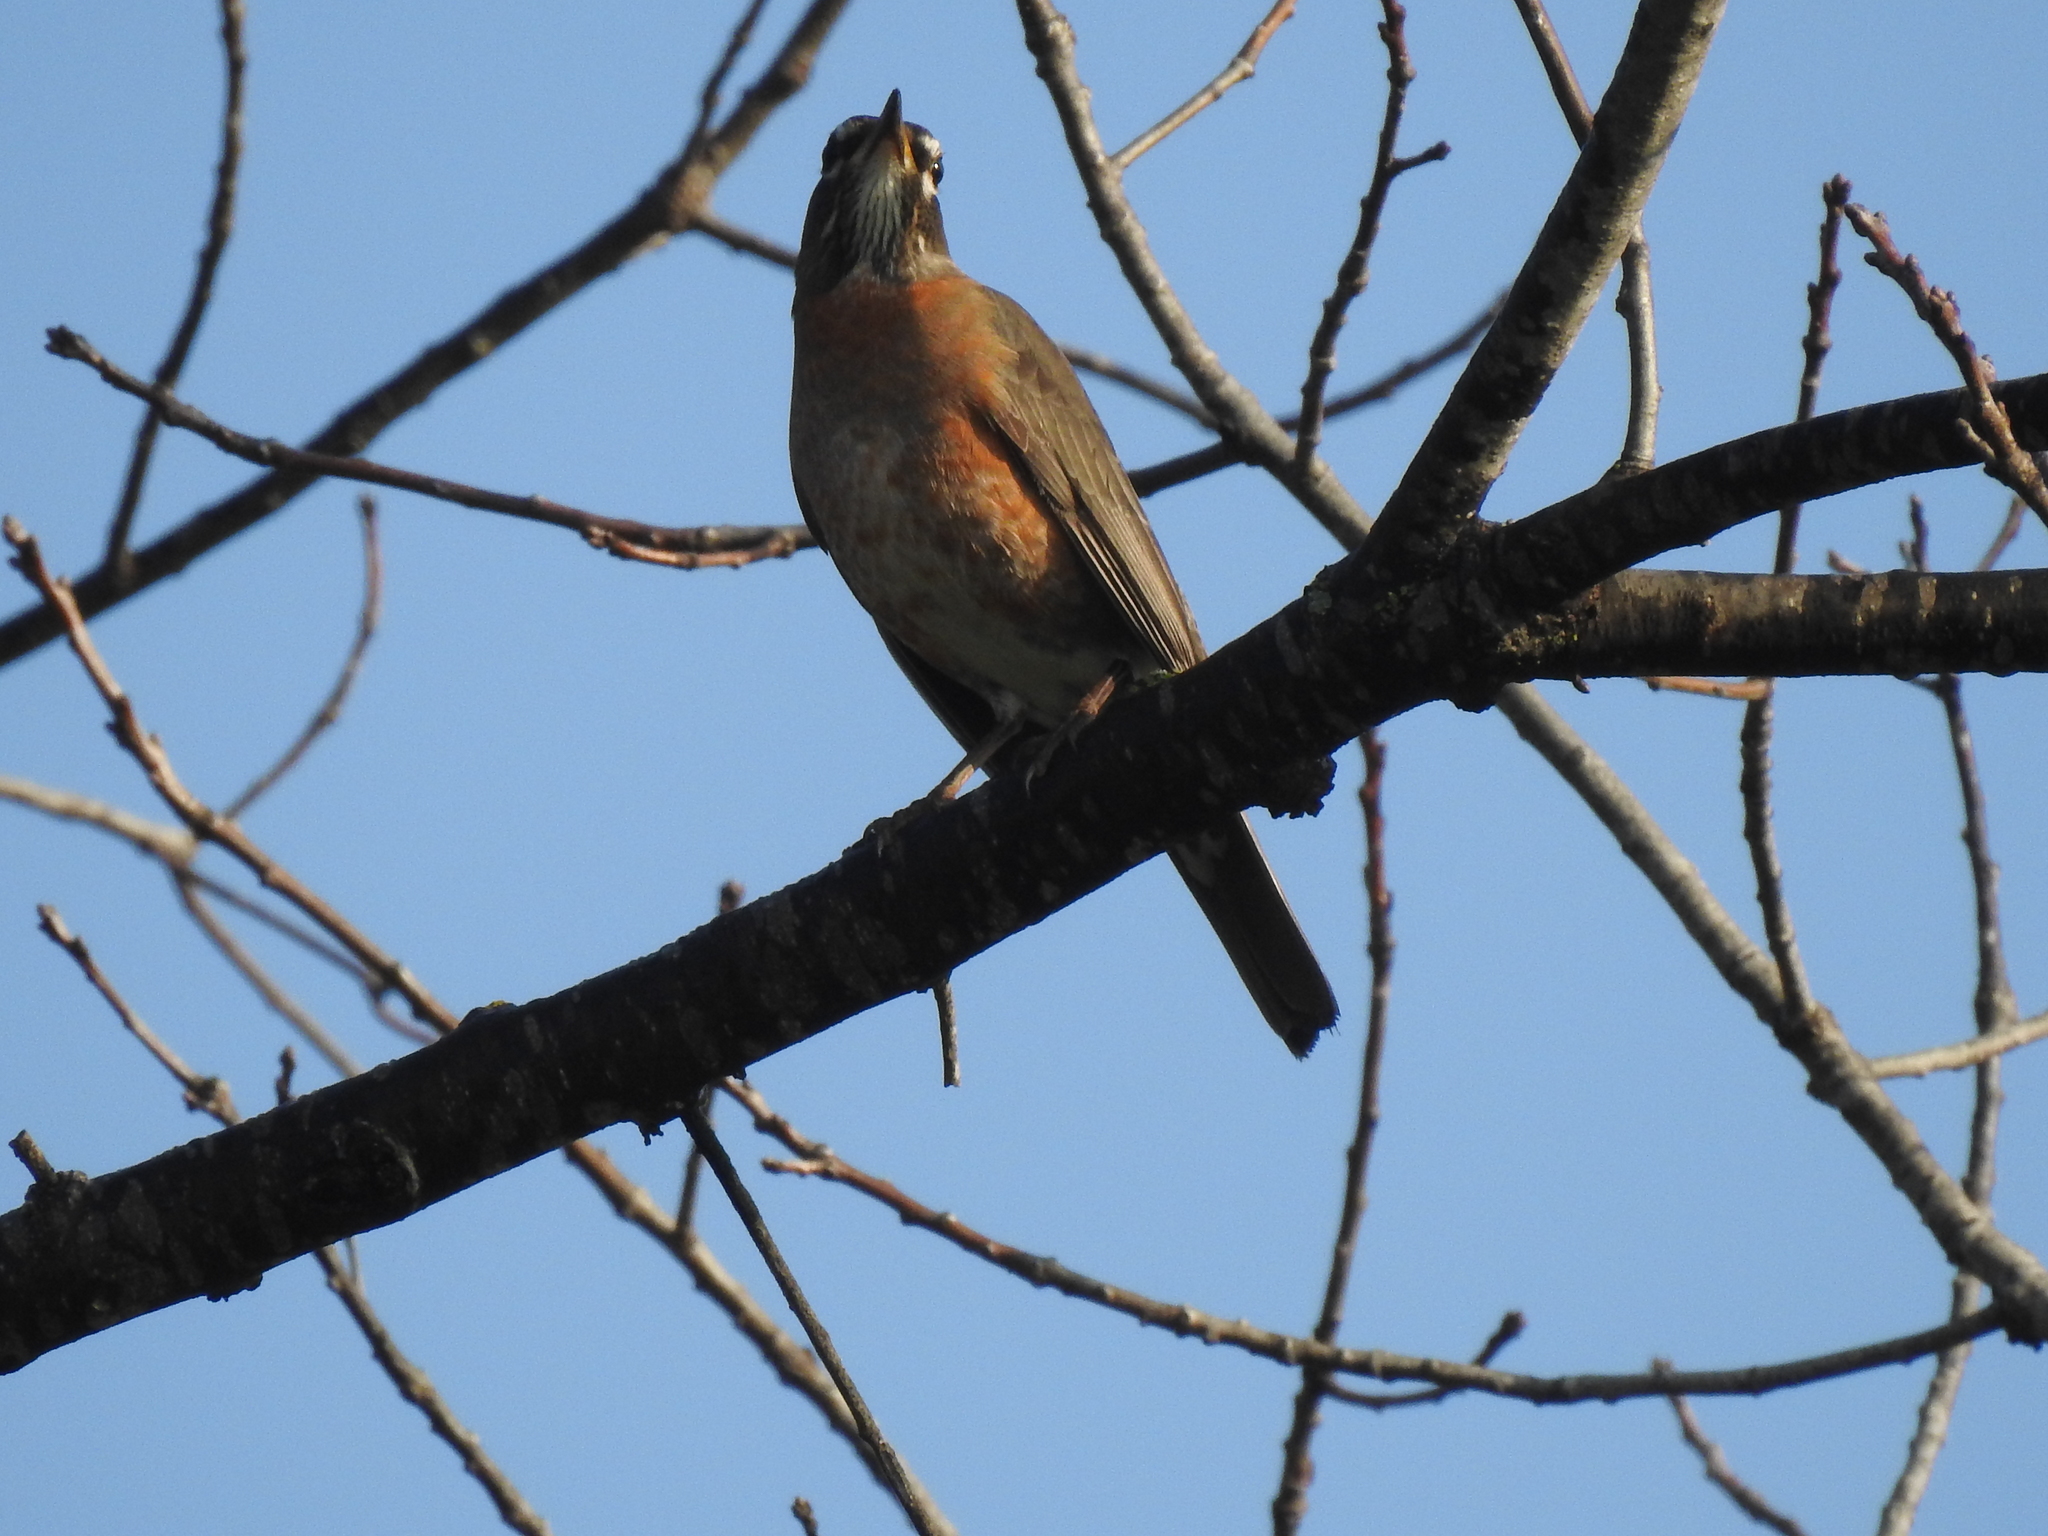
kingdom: Animalia
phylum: Chordata
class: Aves
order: Passeriformes
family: Turdidae
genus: Turdus
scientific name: Turdus migratorius
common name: American robin
